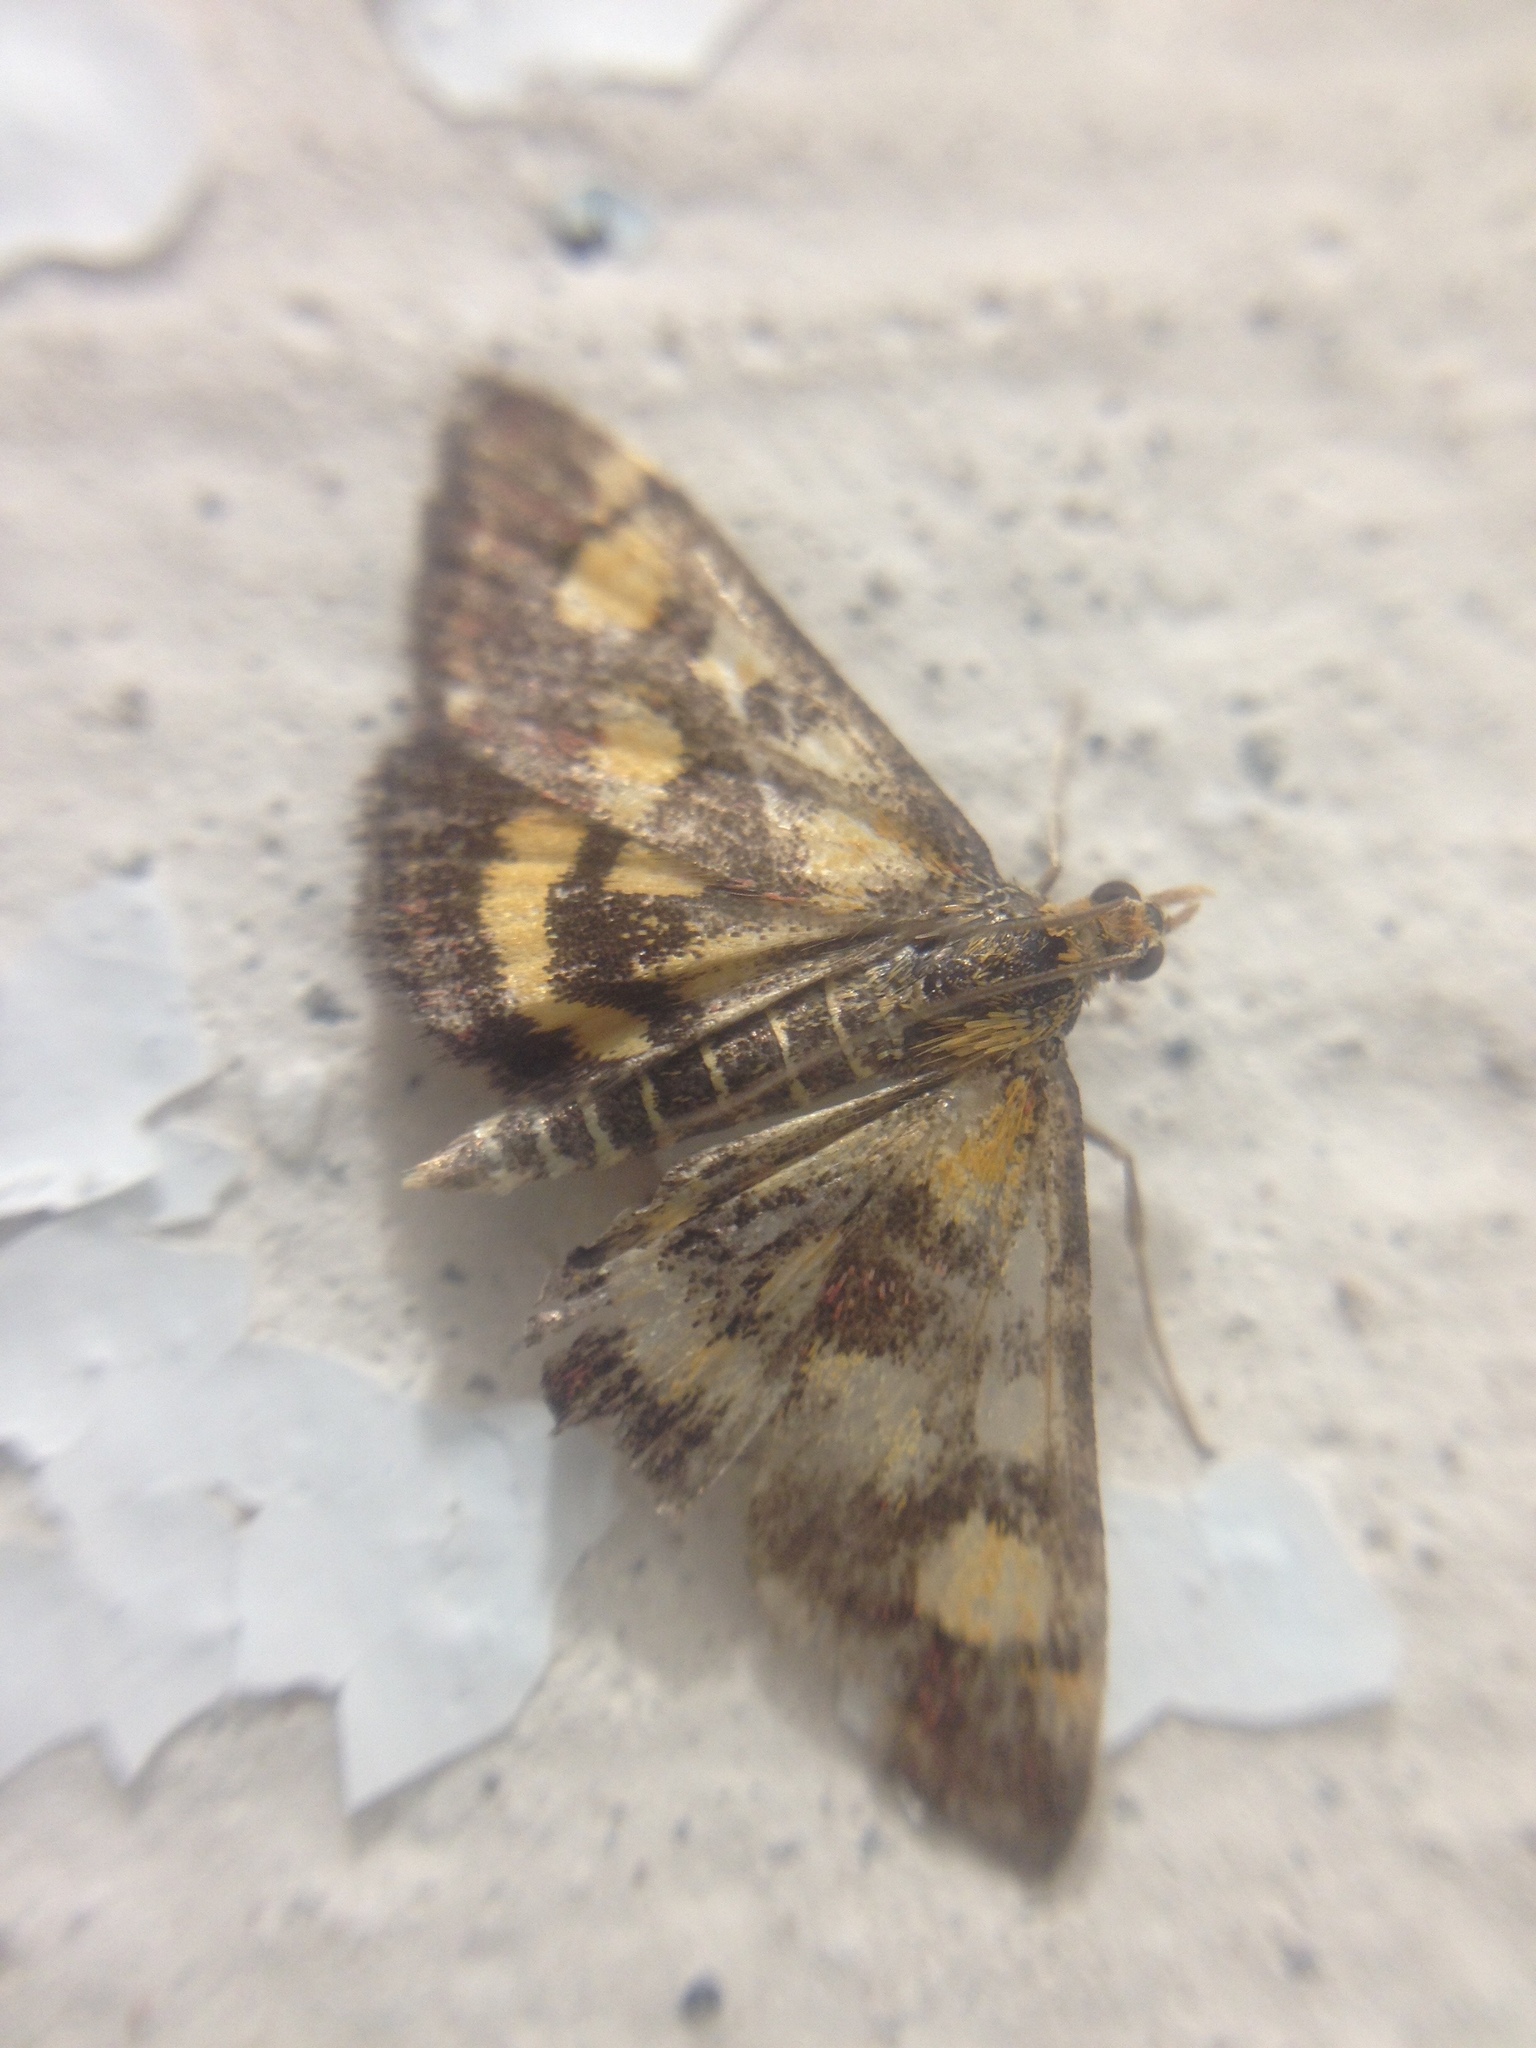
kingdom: Animalia
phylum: Arthropoda
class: Insecta
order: Lepidoptera
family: Crambidae
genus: Pyrausta
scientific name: Pyrausta purpuralis
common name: Common purple & gold
